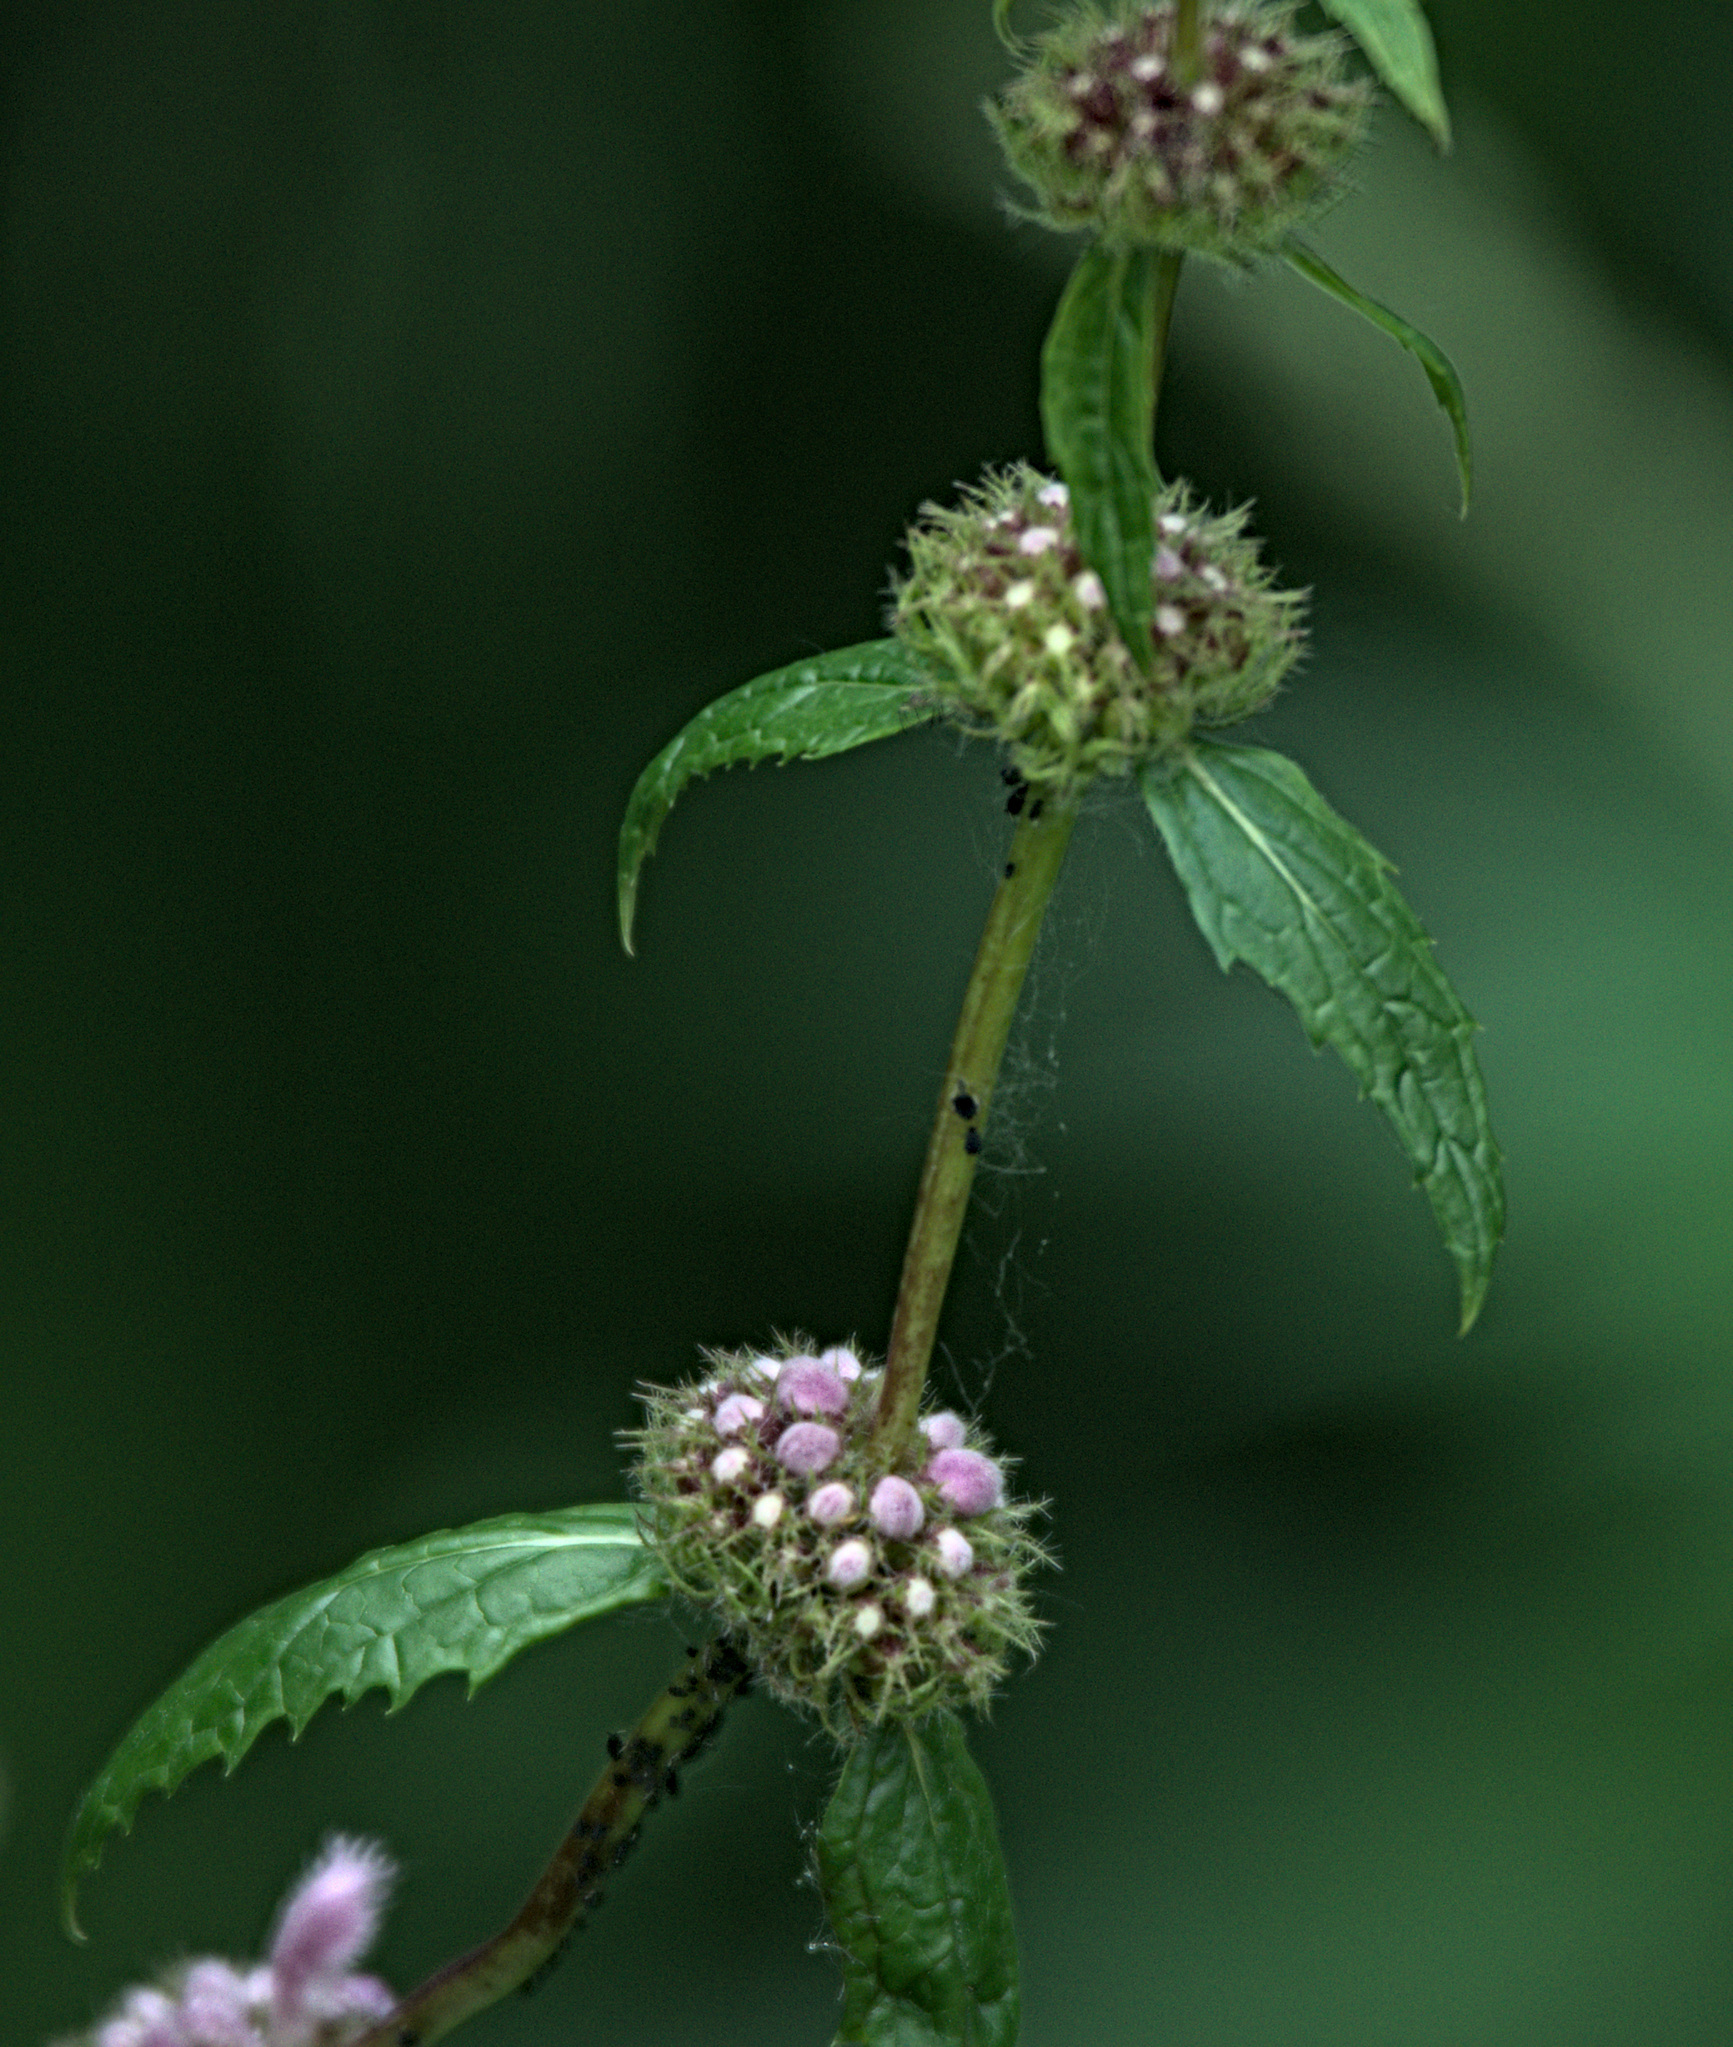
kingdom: Plantae
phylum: Tracheophyta
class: Magnoliopsida
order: Lamiales
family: Lamiaceae
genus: Phlomoides
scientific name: Phlomoides tuberosa
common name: Tuberous jerusalem sage
